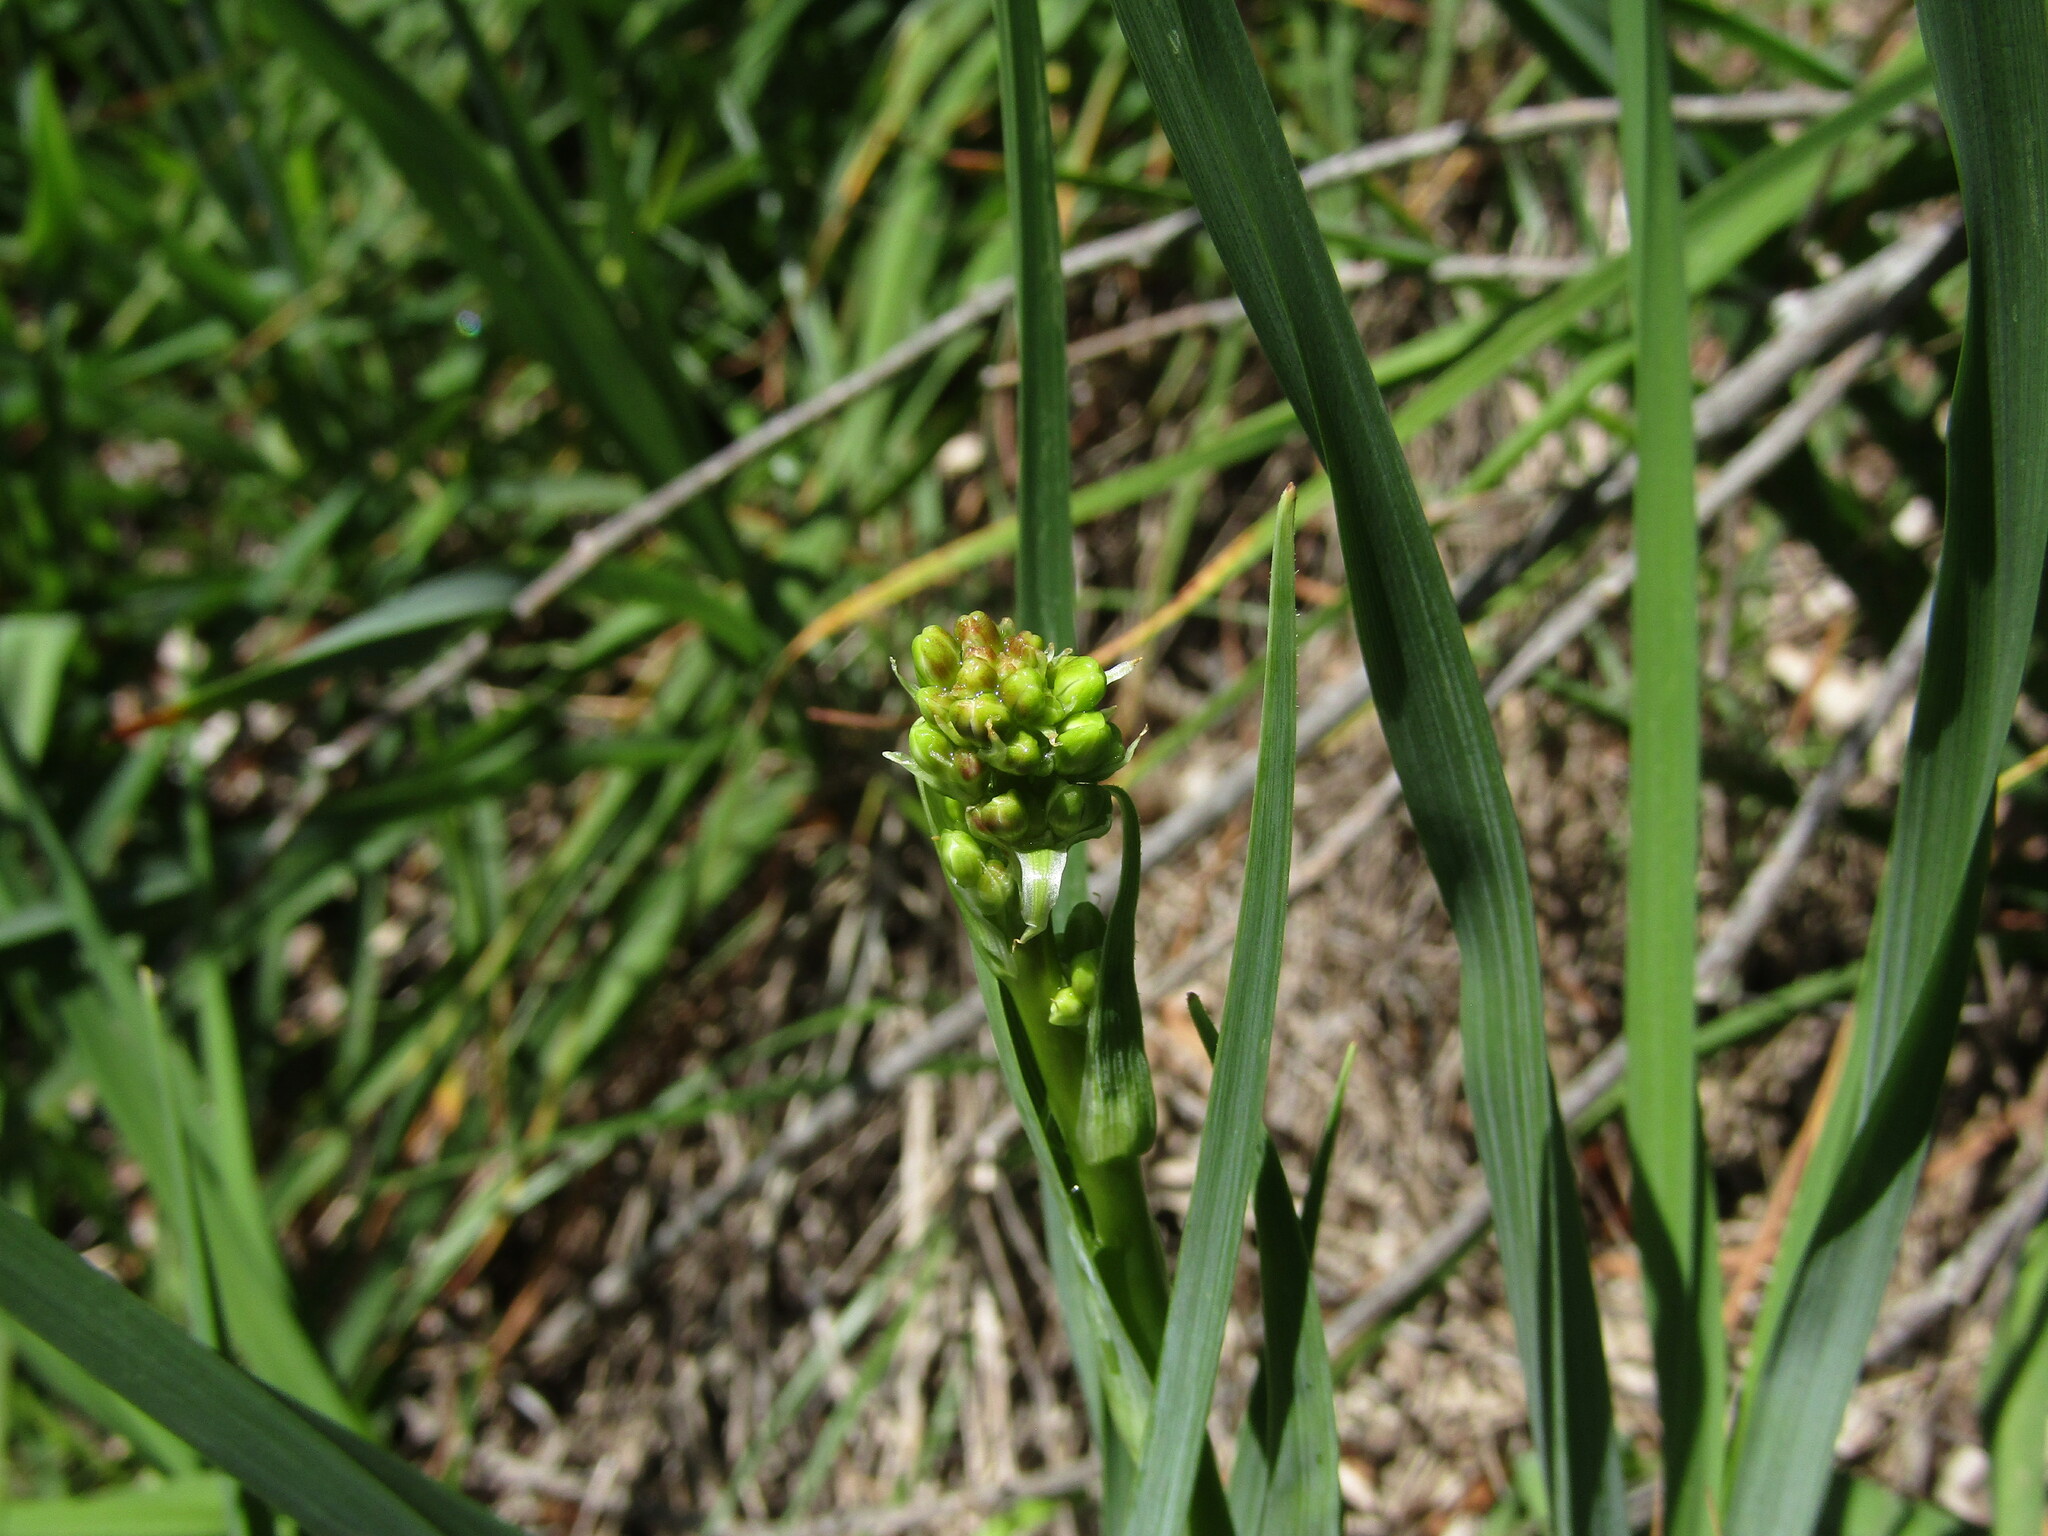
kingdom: Plantae
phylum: Tracheophyta
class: Liliopsida
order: Asparagales
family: Asphodelaceae
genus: Pasithea
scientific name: Pasithea caerulea
